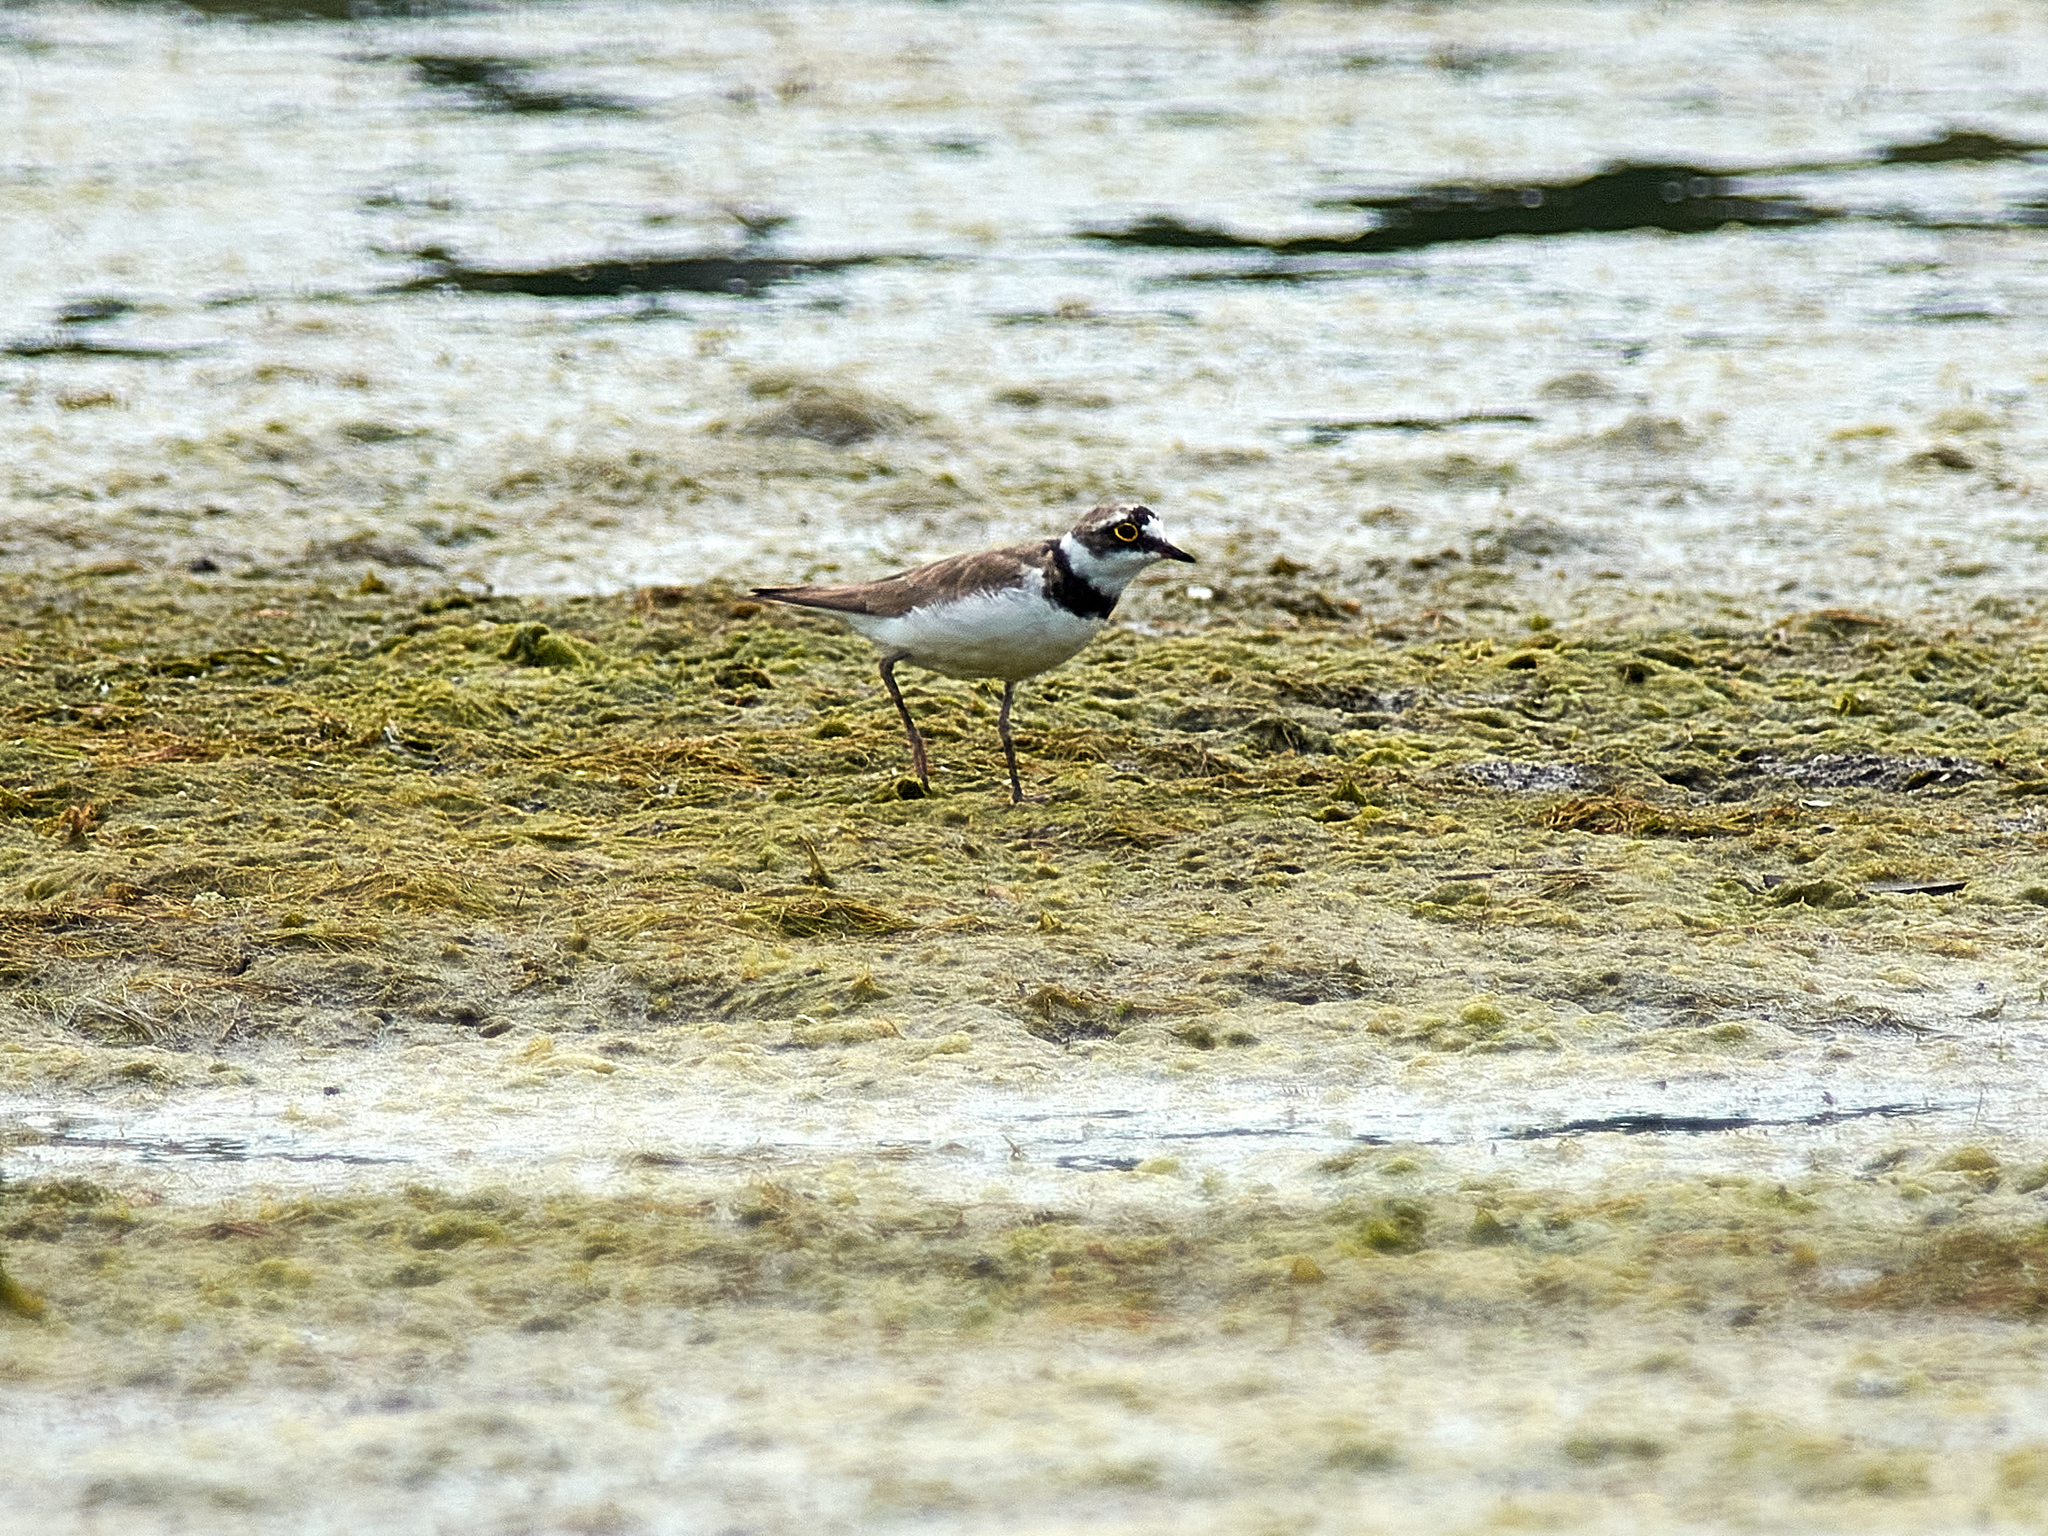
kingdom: Animalia
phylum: Chordata
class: Aves
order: Charadriiformes
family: Charadriidae
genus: Charadrius
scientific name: Charadrius dubius
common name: Little ringed plover
